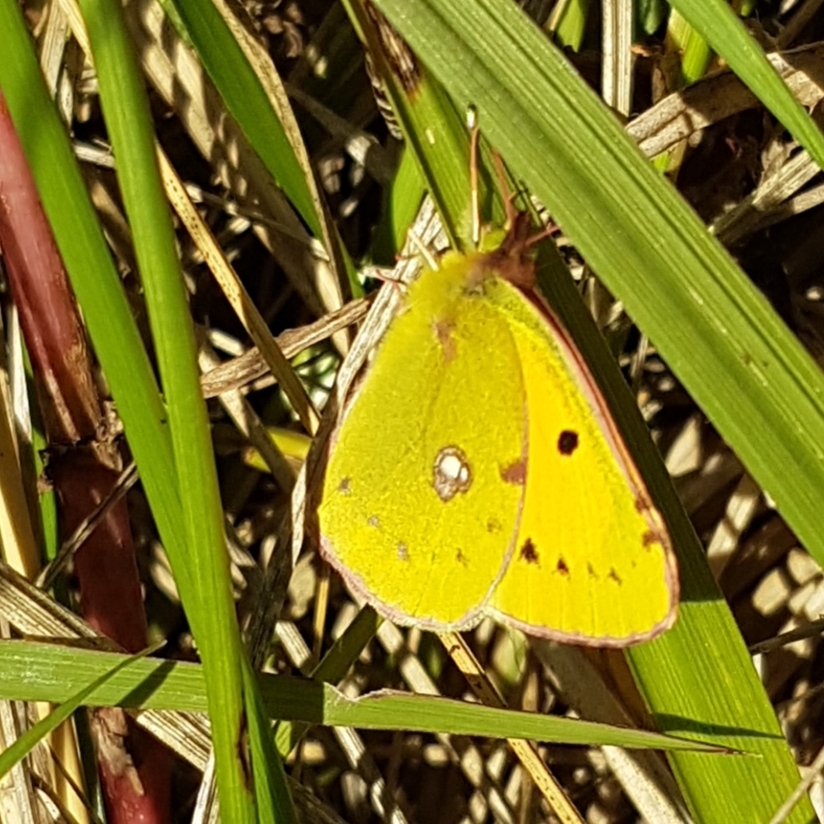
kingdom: Animalia
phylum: Arthropoda
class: Insecta
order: Lepidoptera
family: Pieridae
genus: Colias
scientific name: Colias croceus
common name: Clouded yellow
